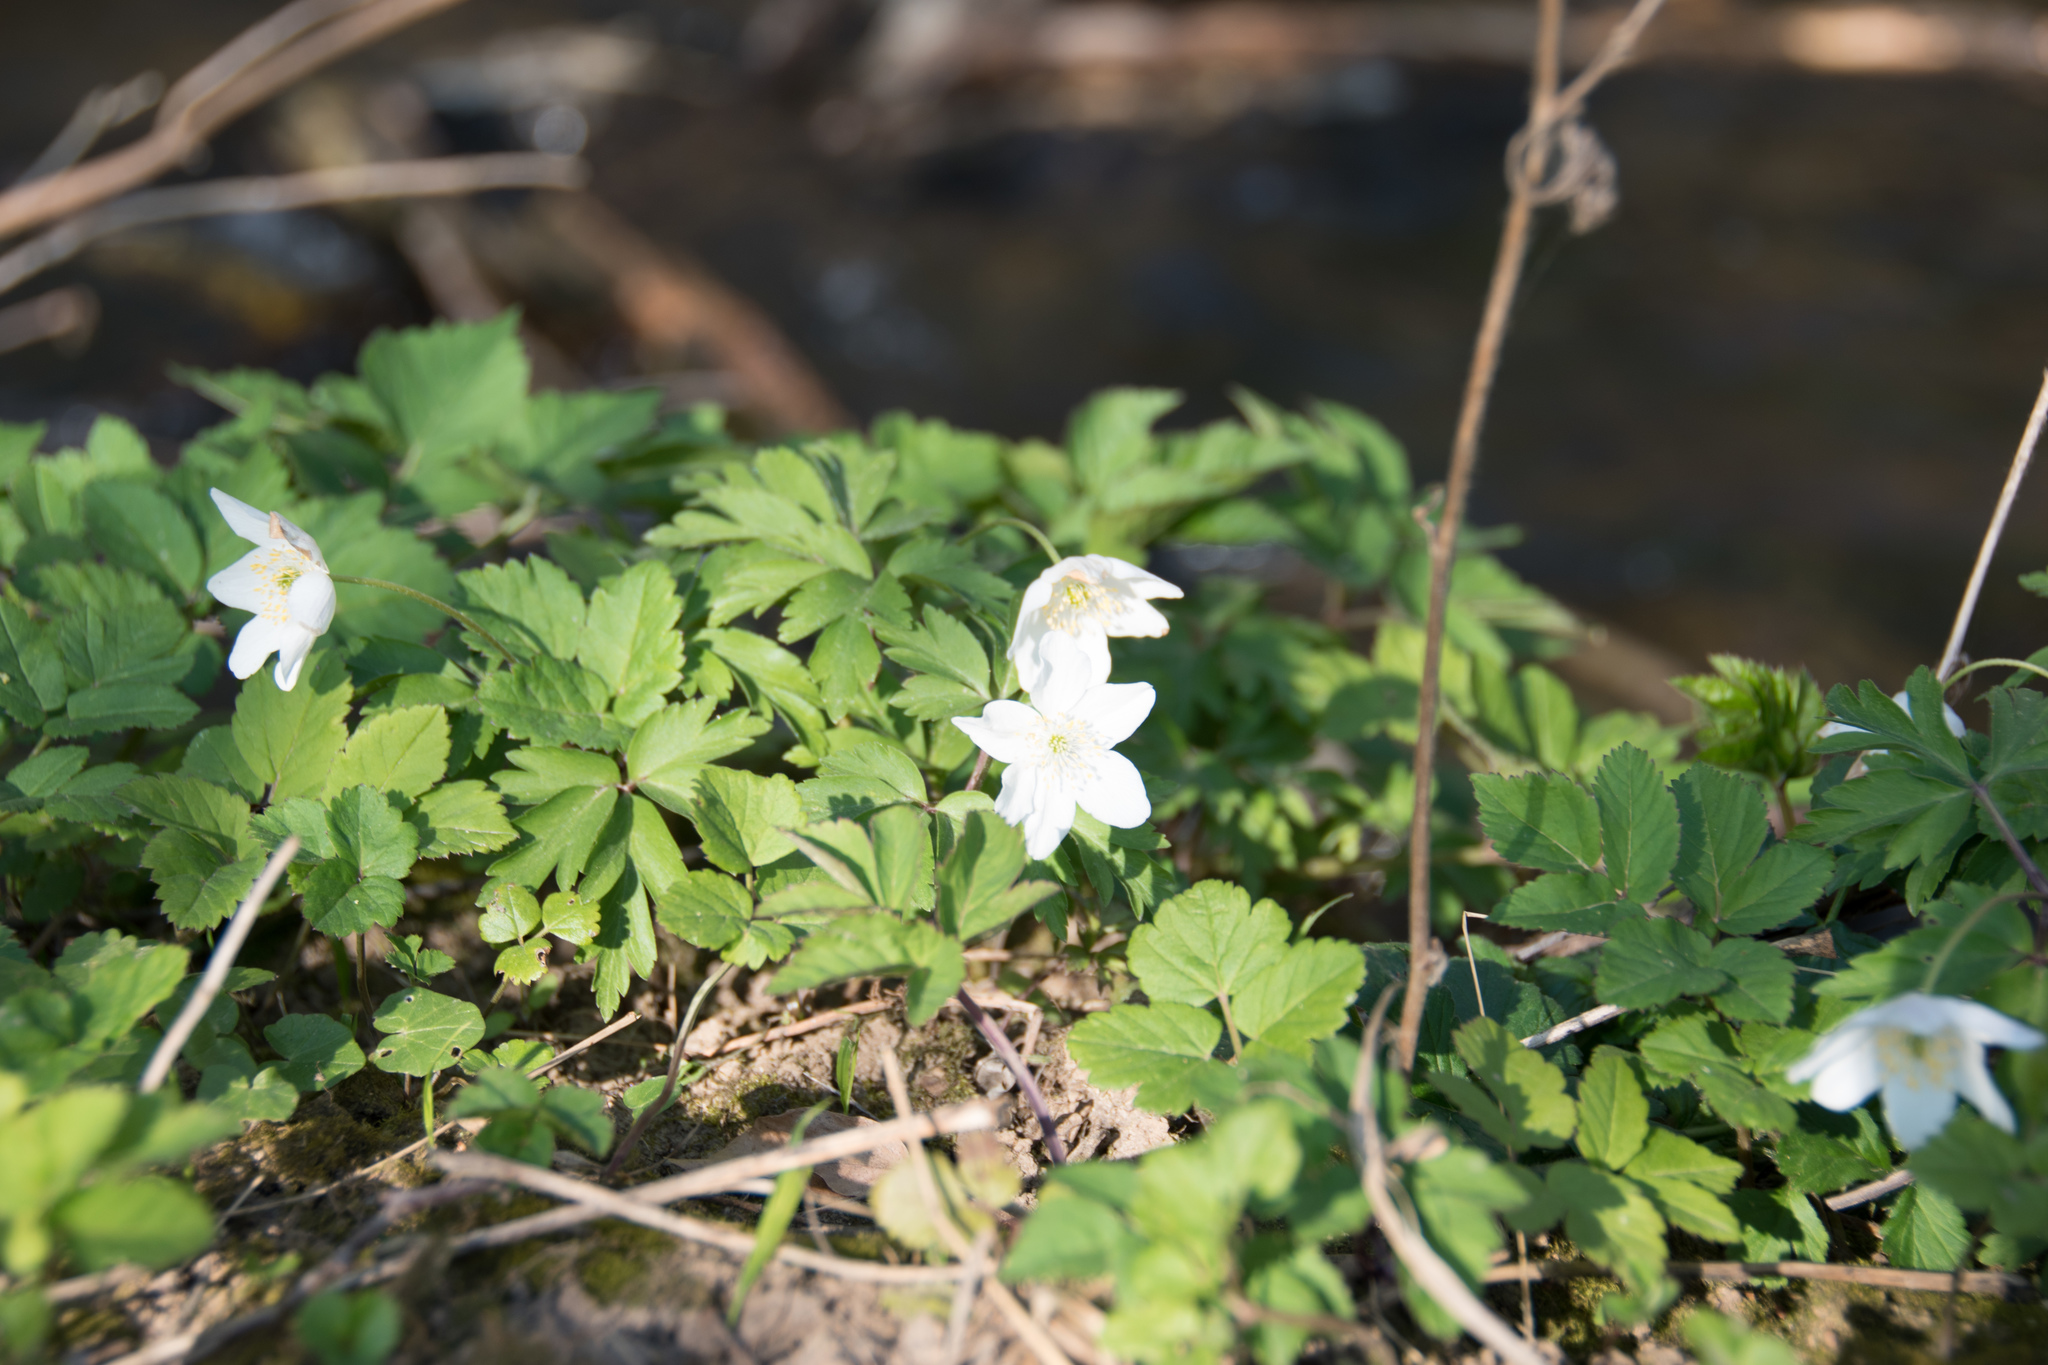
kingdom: Plantae
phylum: Tracheophyta
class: Magnoliopsida
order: Ranunculales
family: Ranunculaceae
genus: Anemone
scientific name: Anemone nemorosa
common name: Wood anemone
